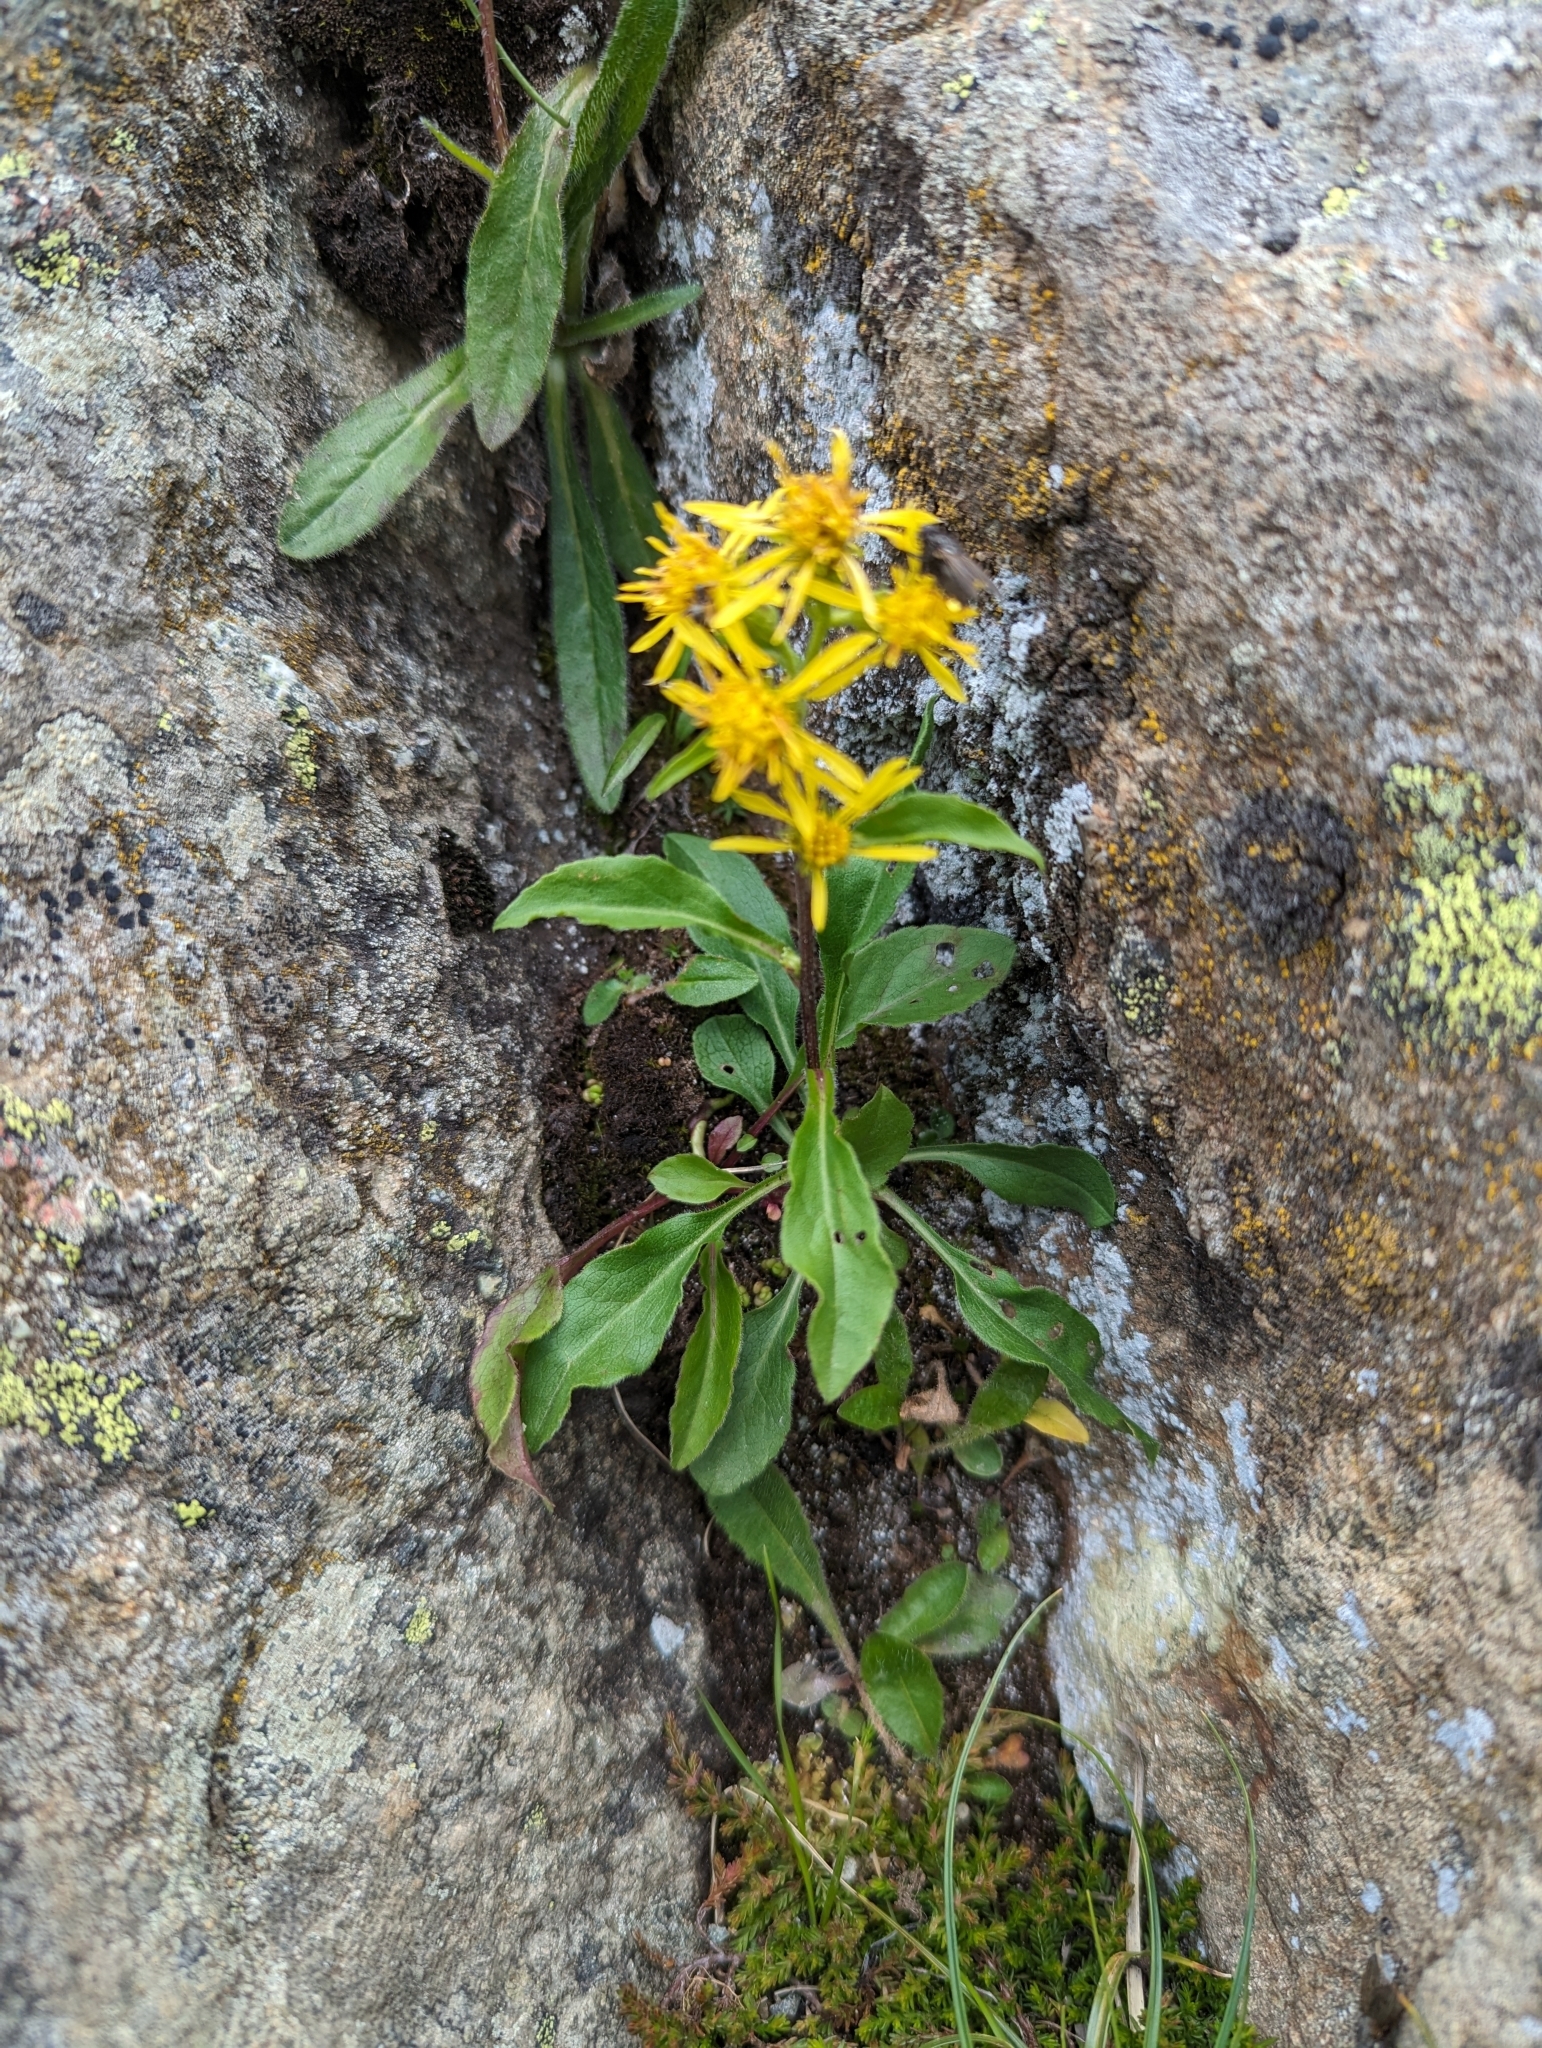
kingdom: Plantae
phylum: Tracheophyta
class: Magnoliopsida
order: Asterales
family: Asteraceae
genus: Solidago
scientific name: Solidago virgaurea
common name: Goldenrod
